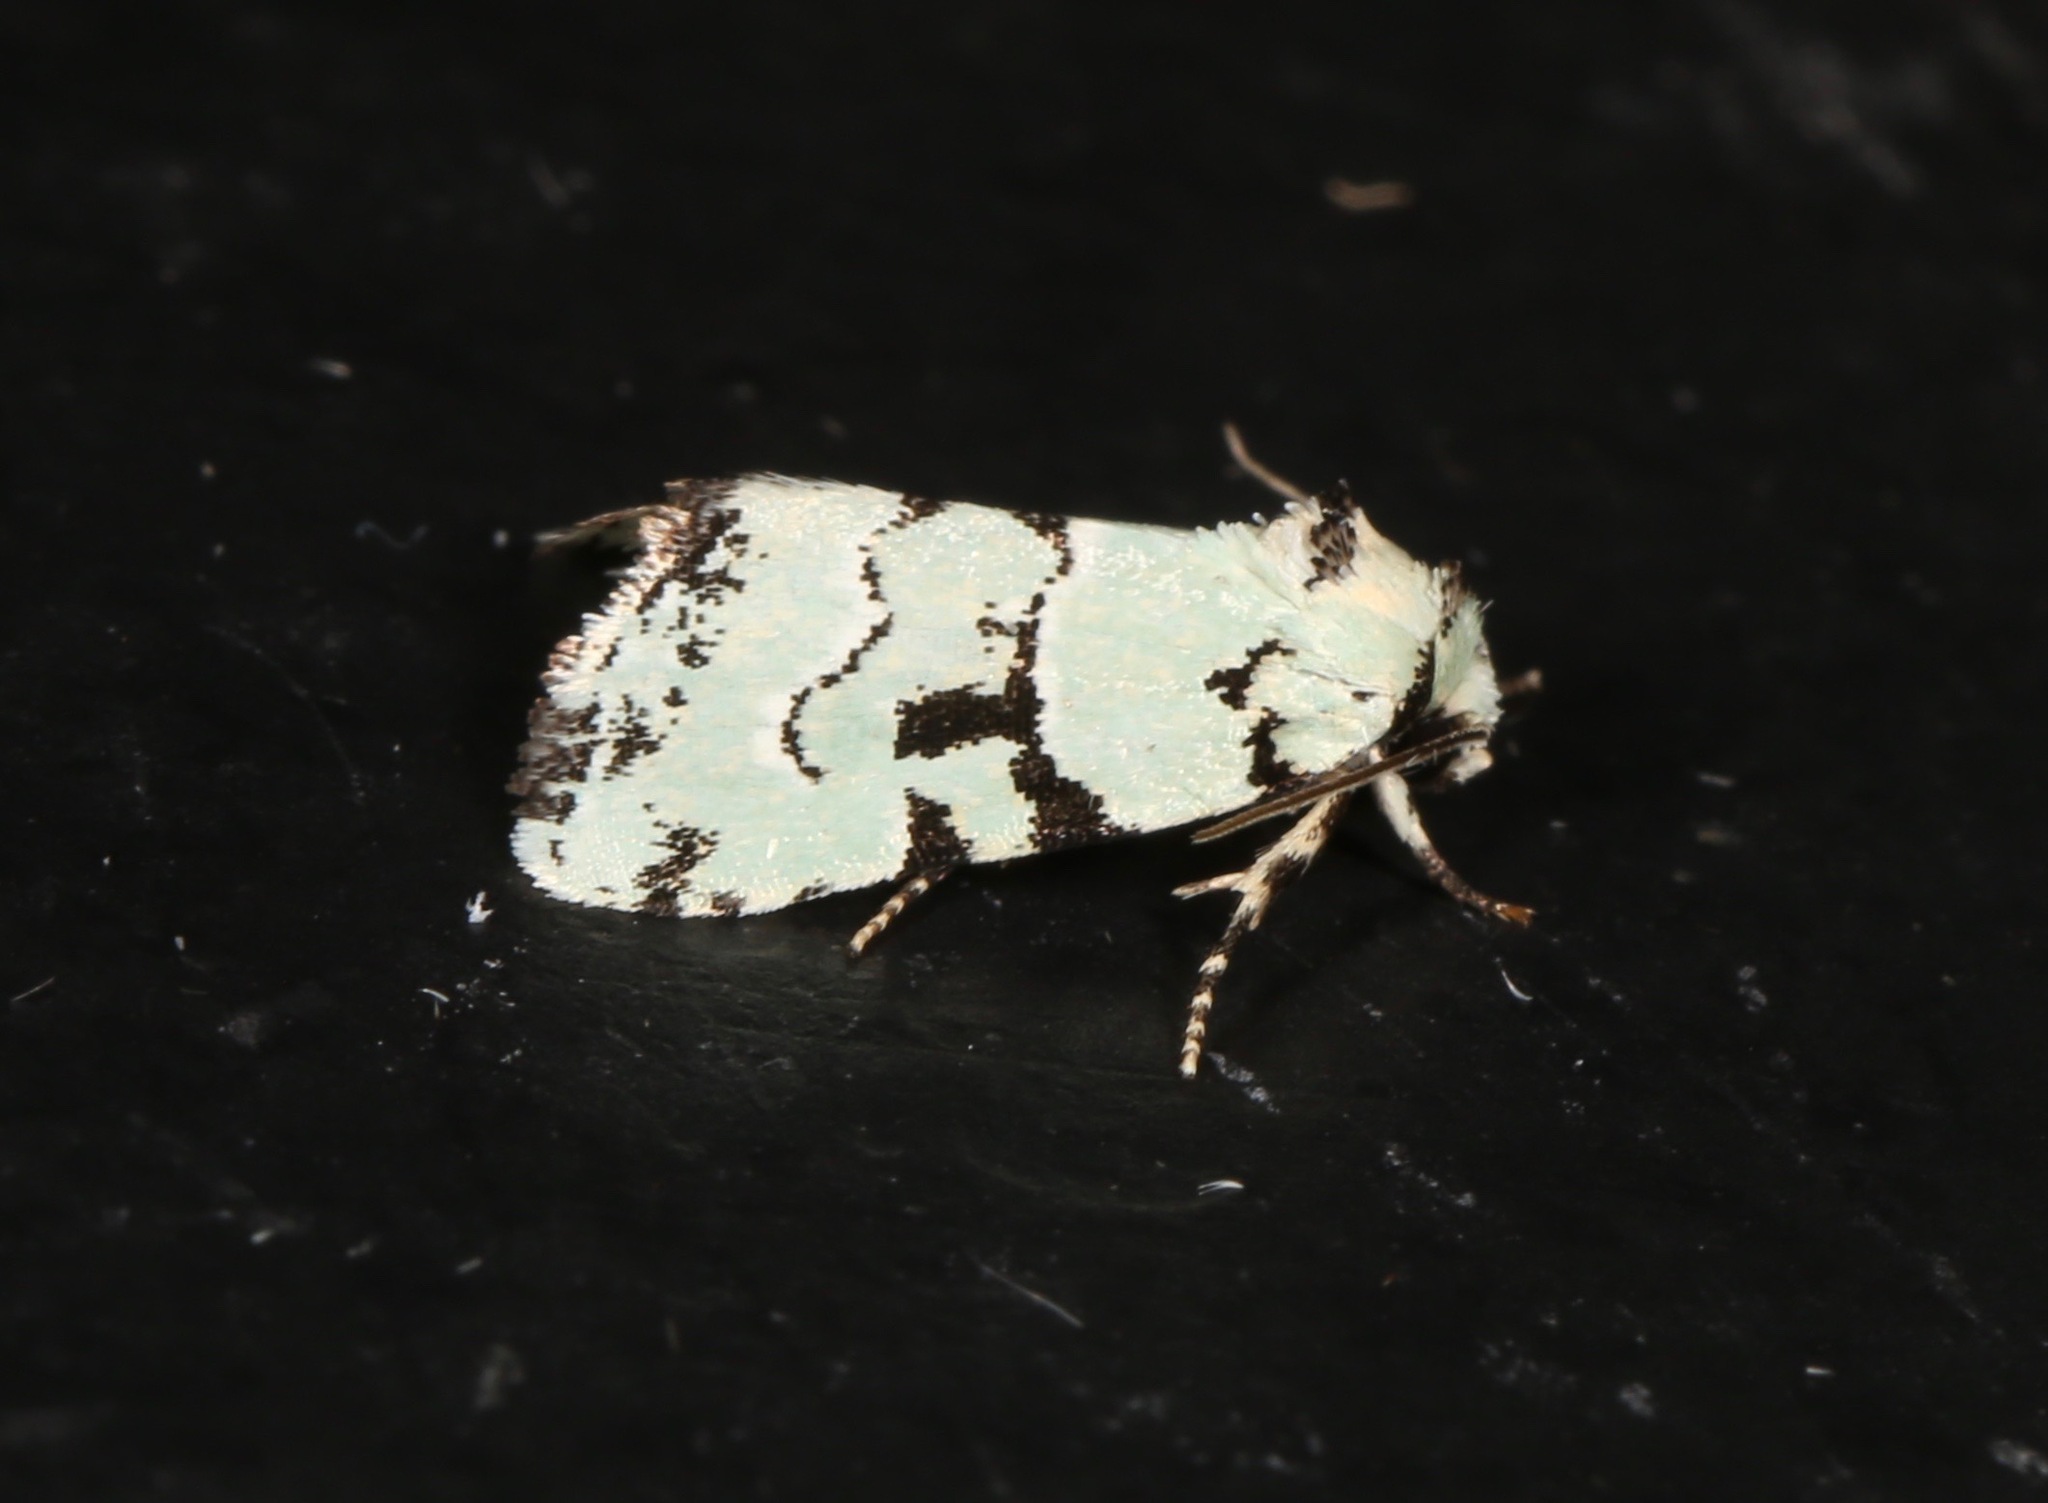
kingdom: Animalia
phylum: Arthropoda
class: Insecta
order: Lepidoptera
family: Noctuidae
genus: Elaphria
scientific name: Elaphria cyanympha
